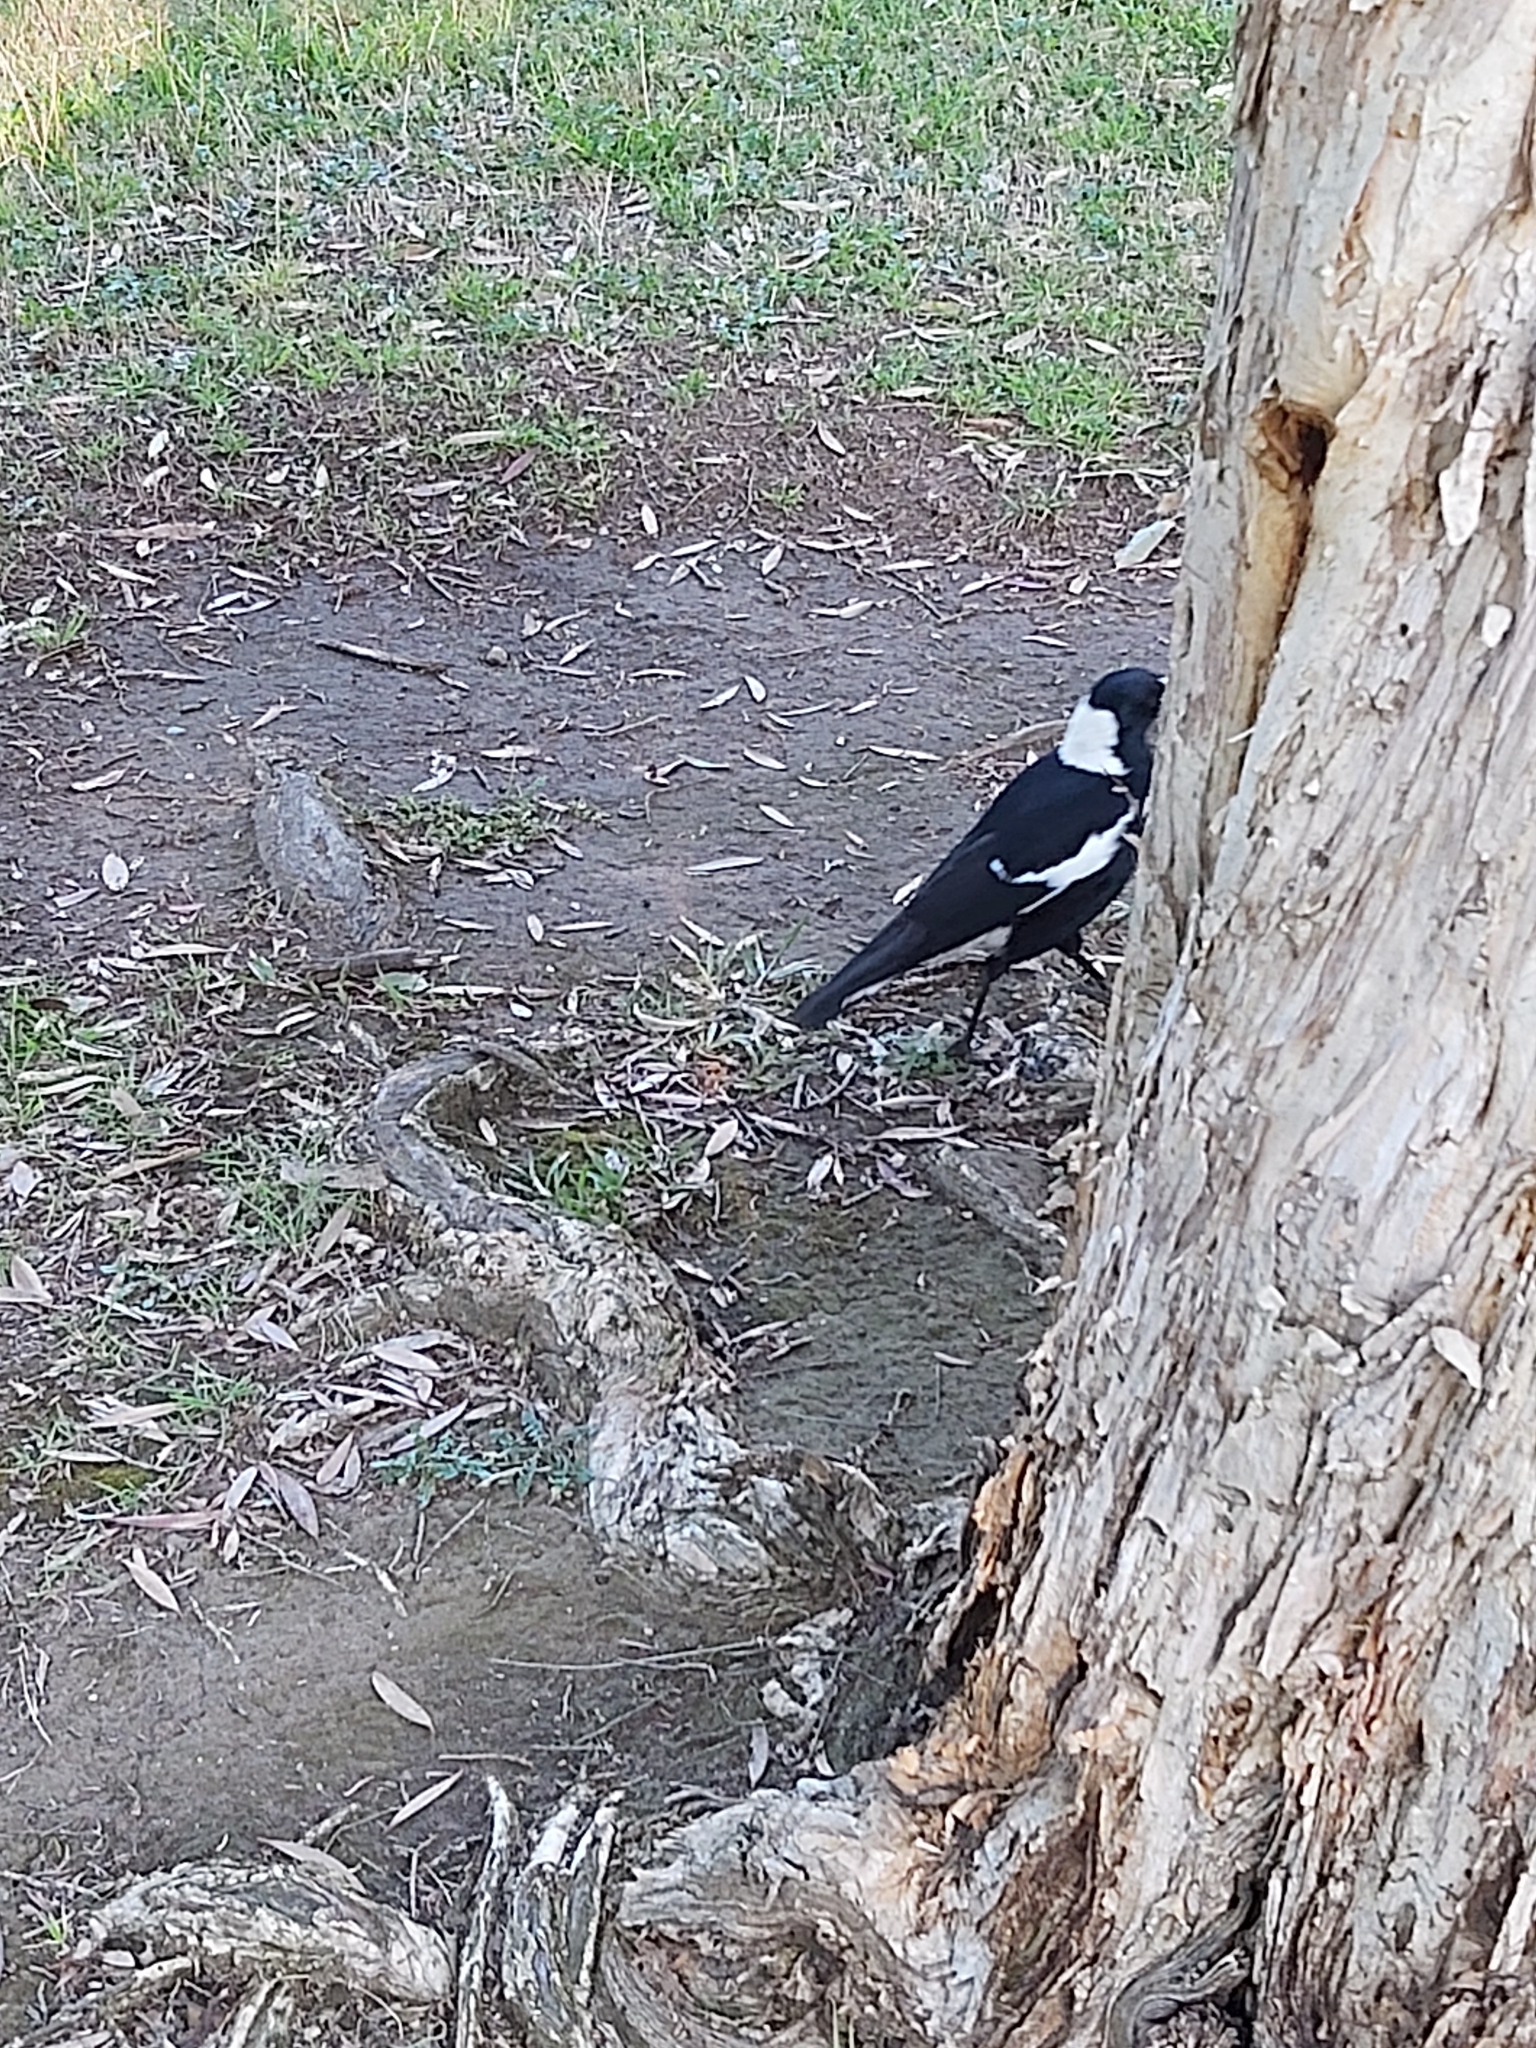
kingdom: Animalia
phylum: Chordata
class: Aves
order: Passeriformes
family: Cracticidae
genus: Gymnorhina
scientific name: Gymnorhina tibicen
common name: Australian magpie
